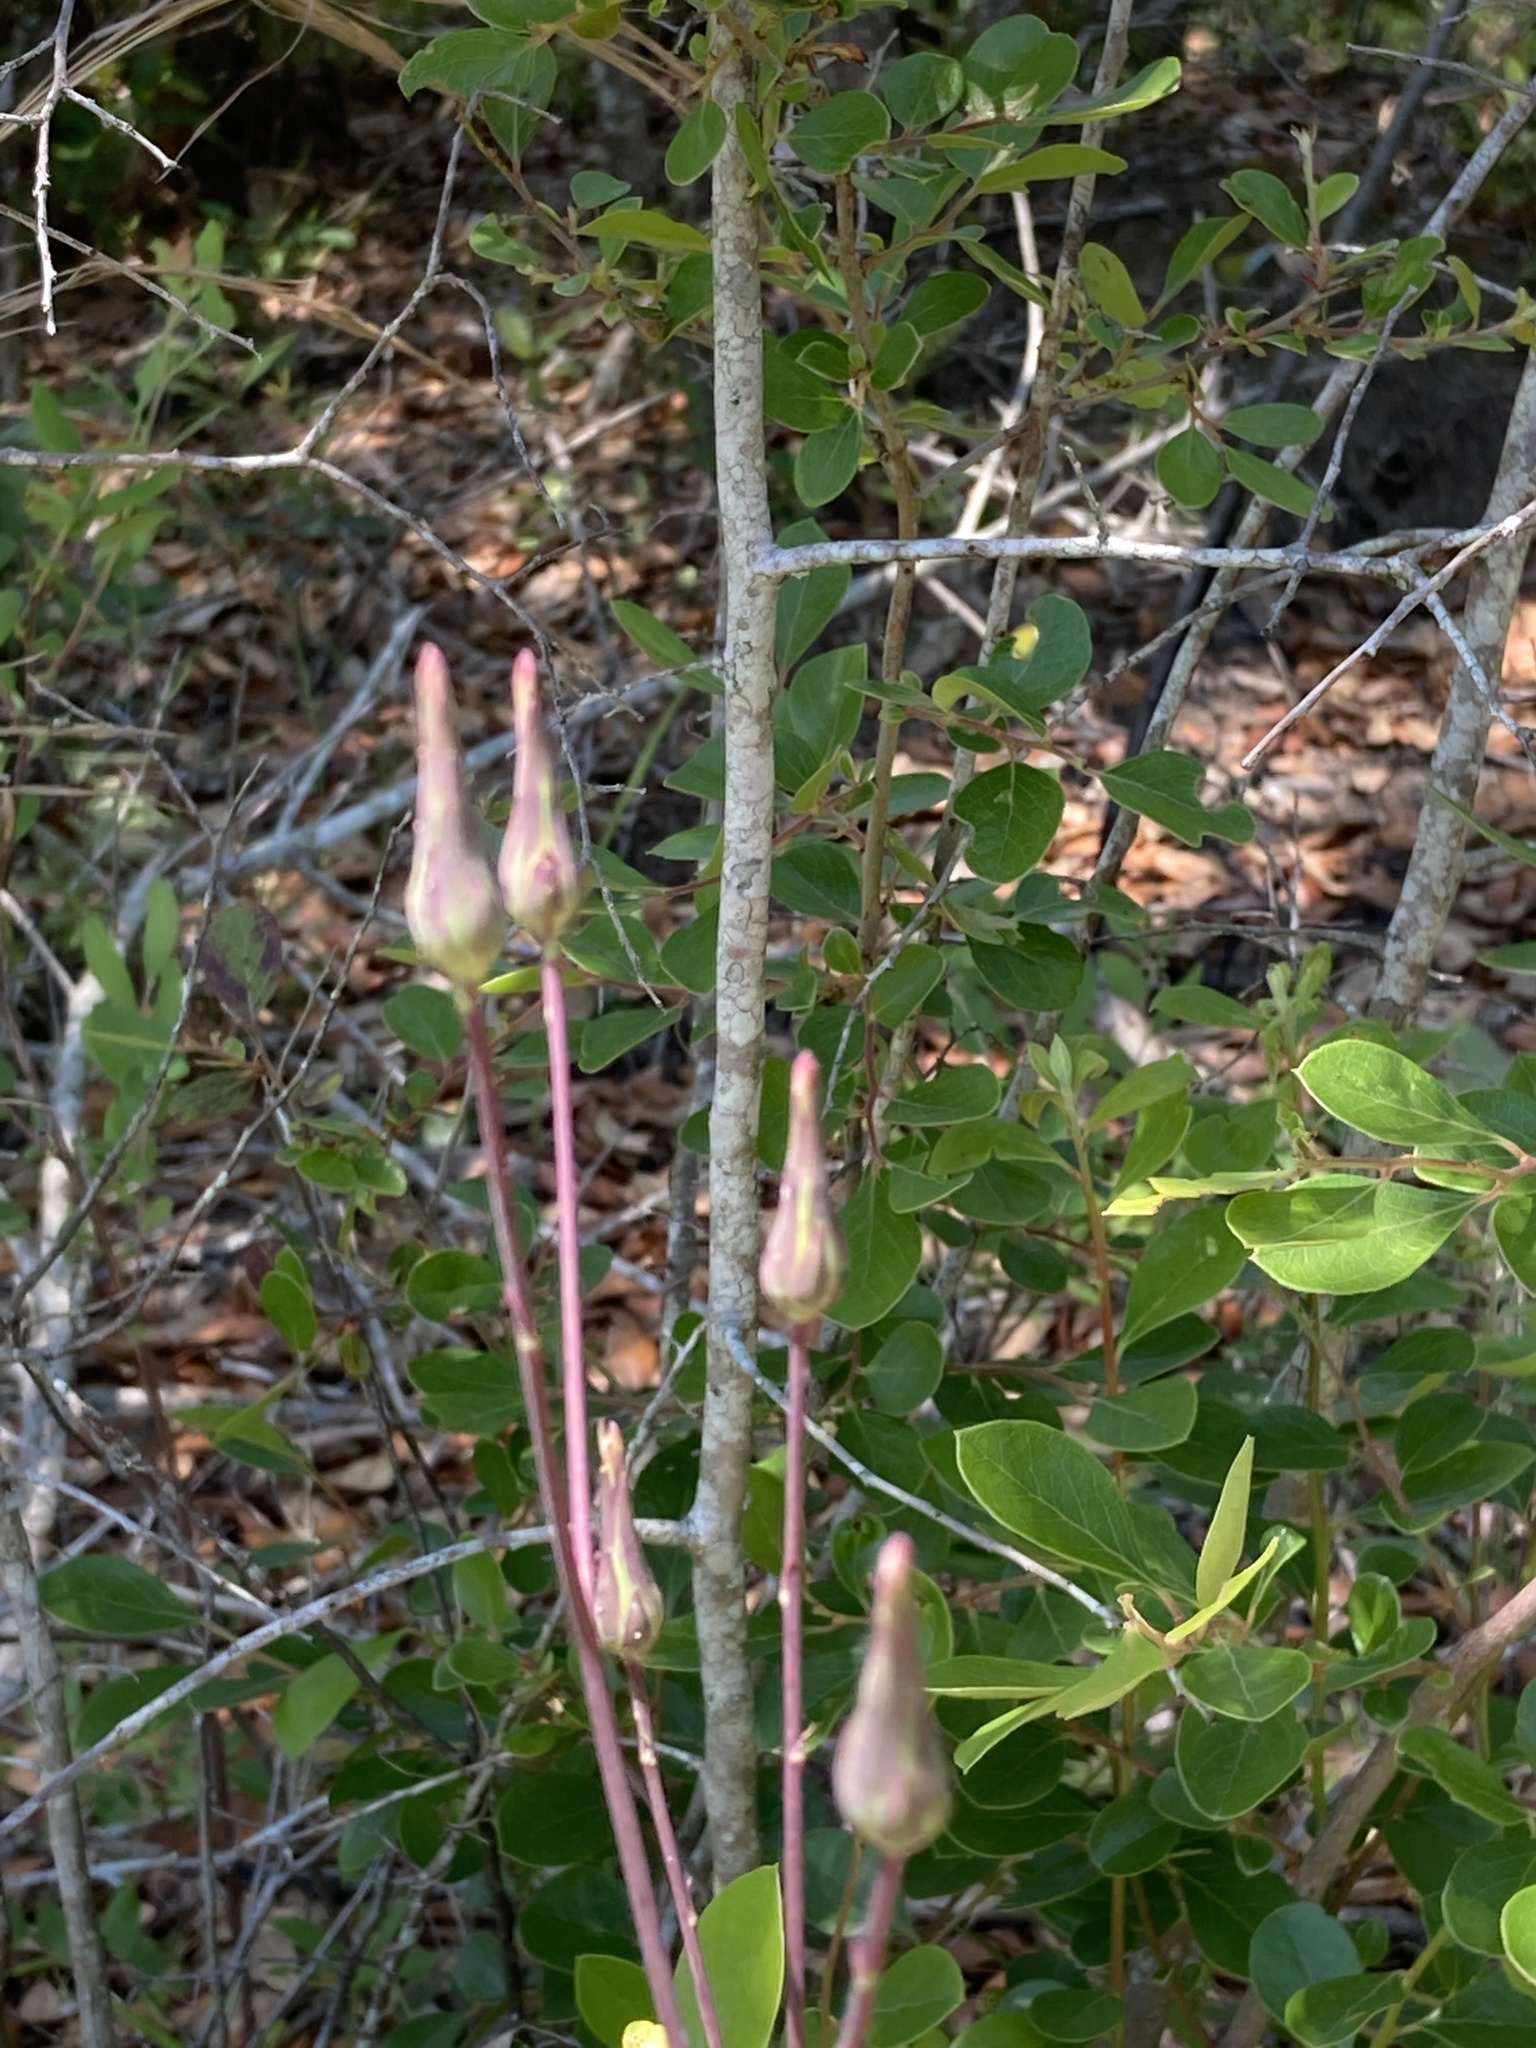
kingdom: Plantae
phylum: Tracheophyta
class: Magnoliopsida
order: Asterales
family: Asteraceae
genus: Lactuca
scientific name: Lactuca graminifolia
